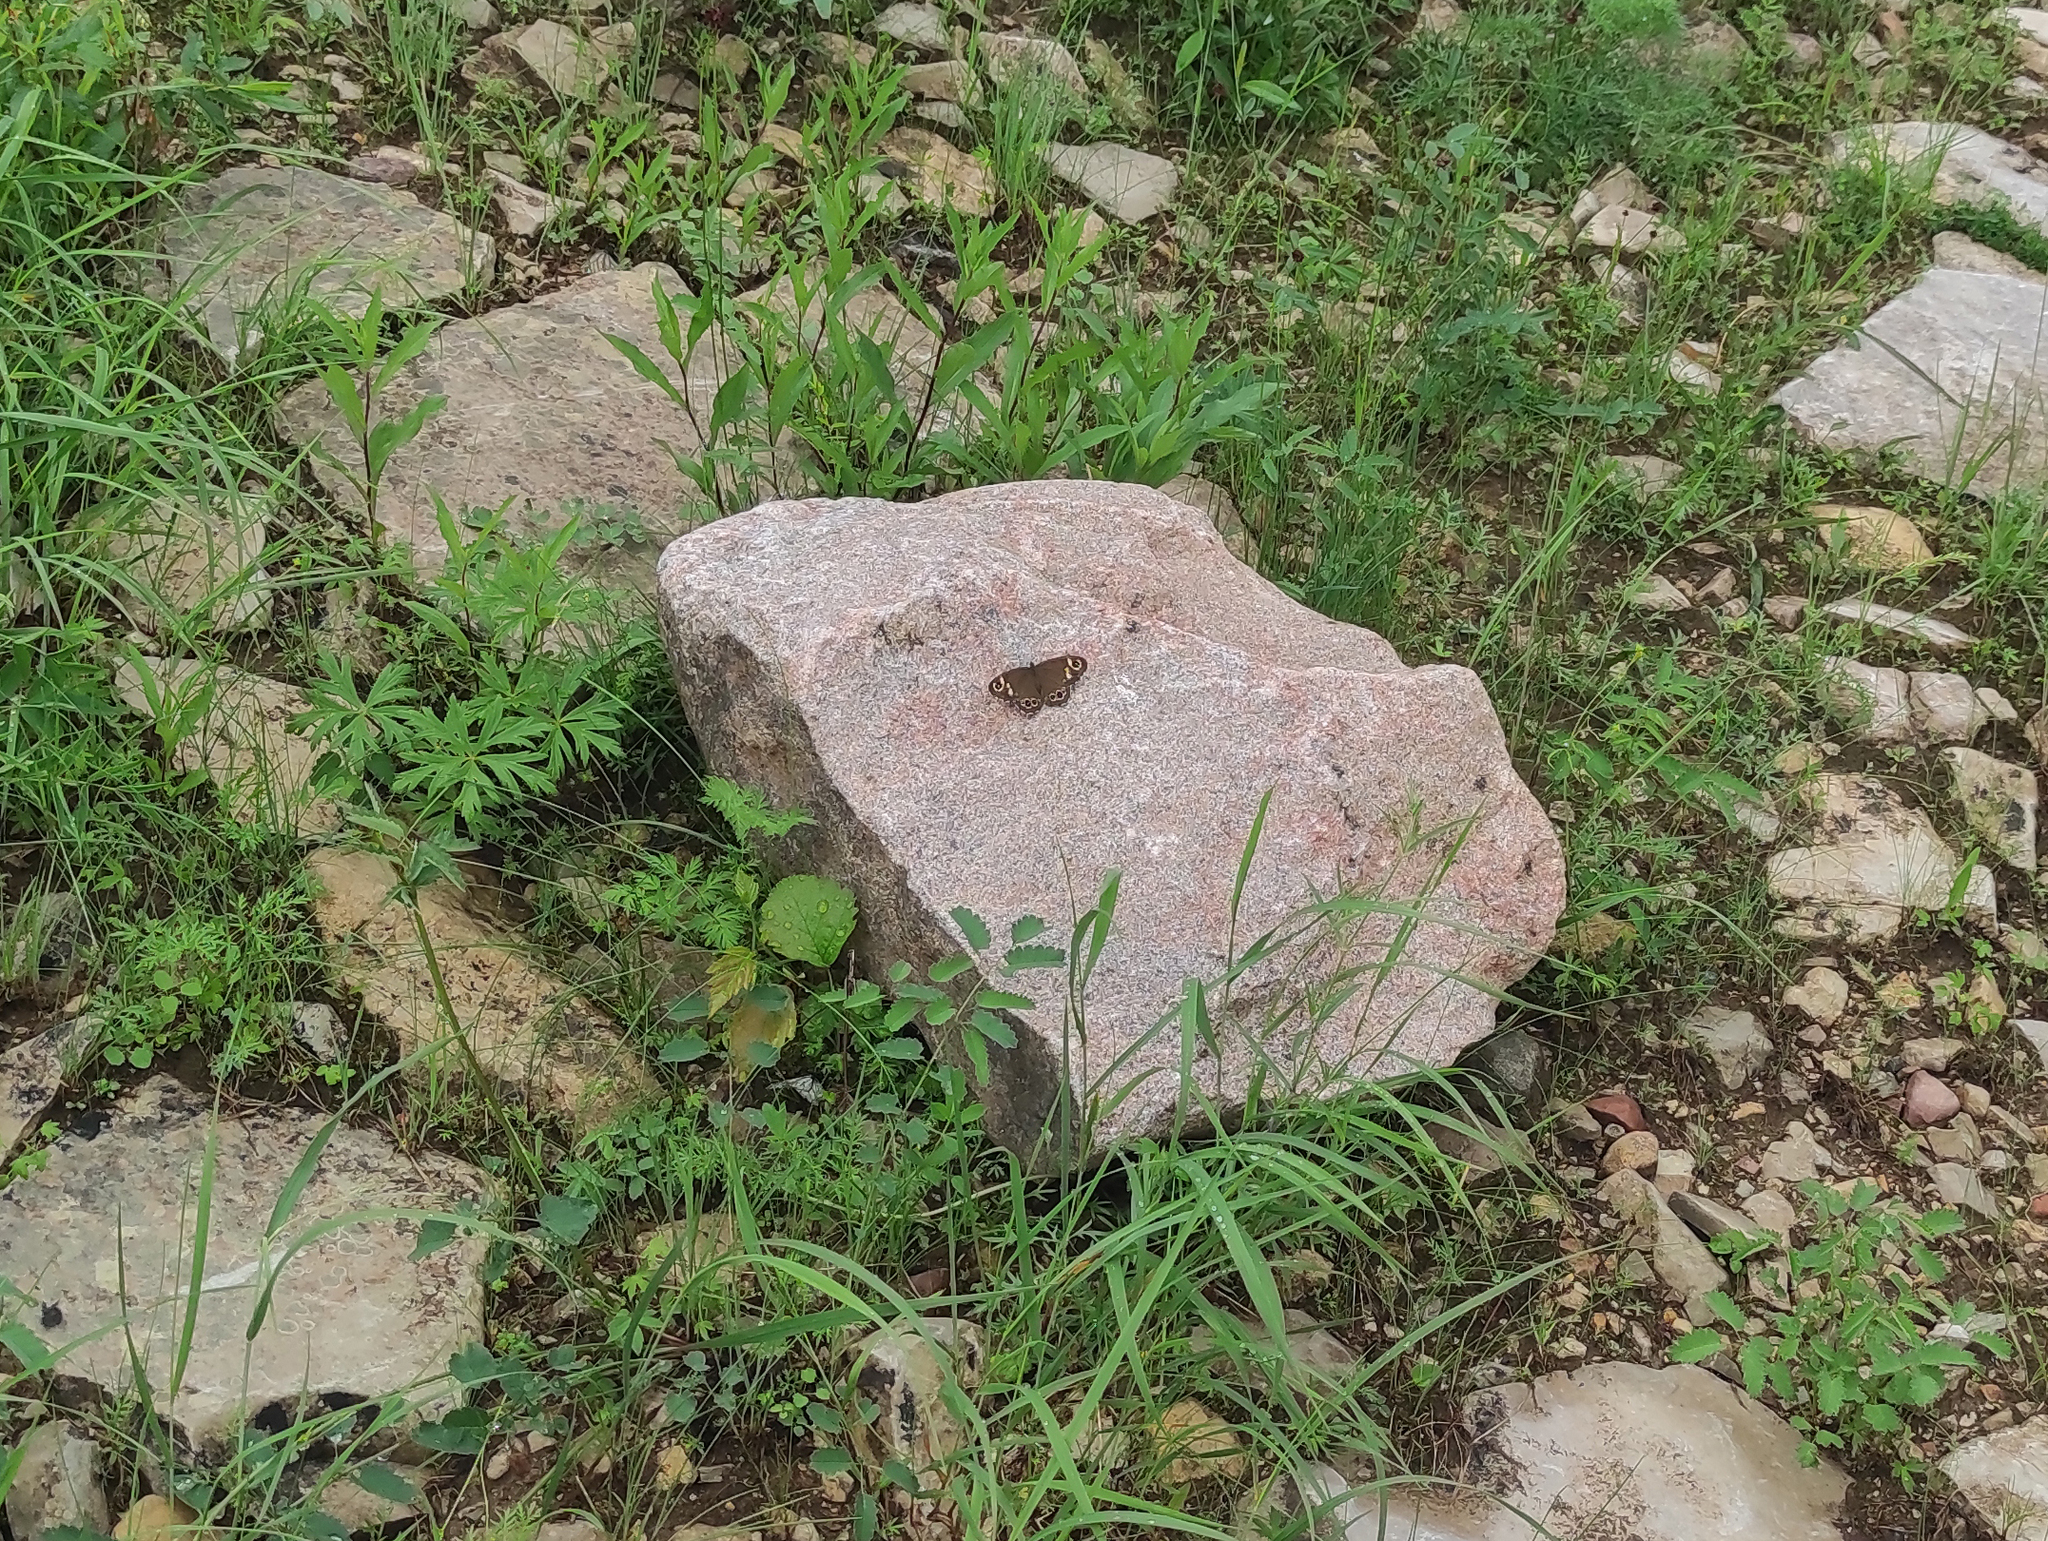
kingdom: Animalia
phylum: Arthropoda
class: Insecta
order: Lepidoptera
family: Nymphalidae
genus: Pararge
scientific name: Pararge Lasiommata deidamia
